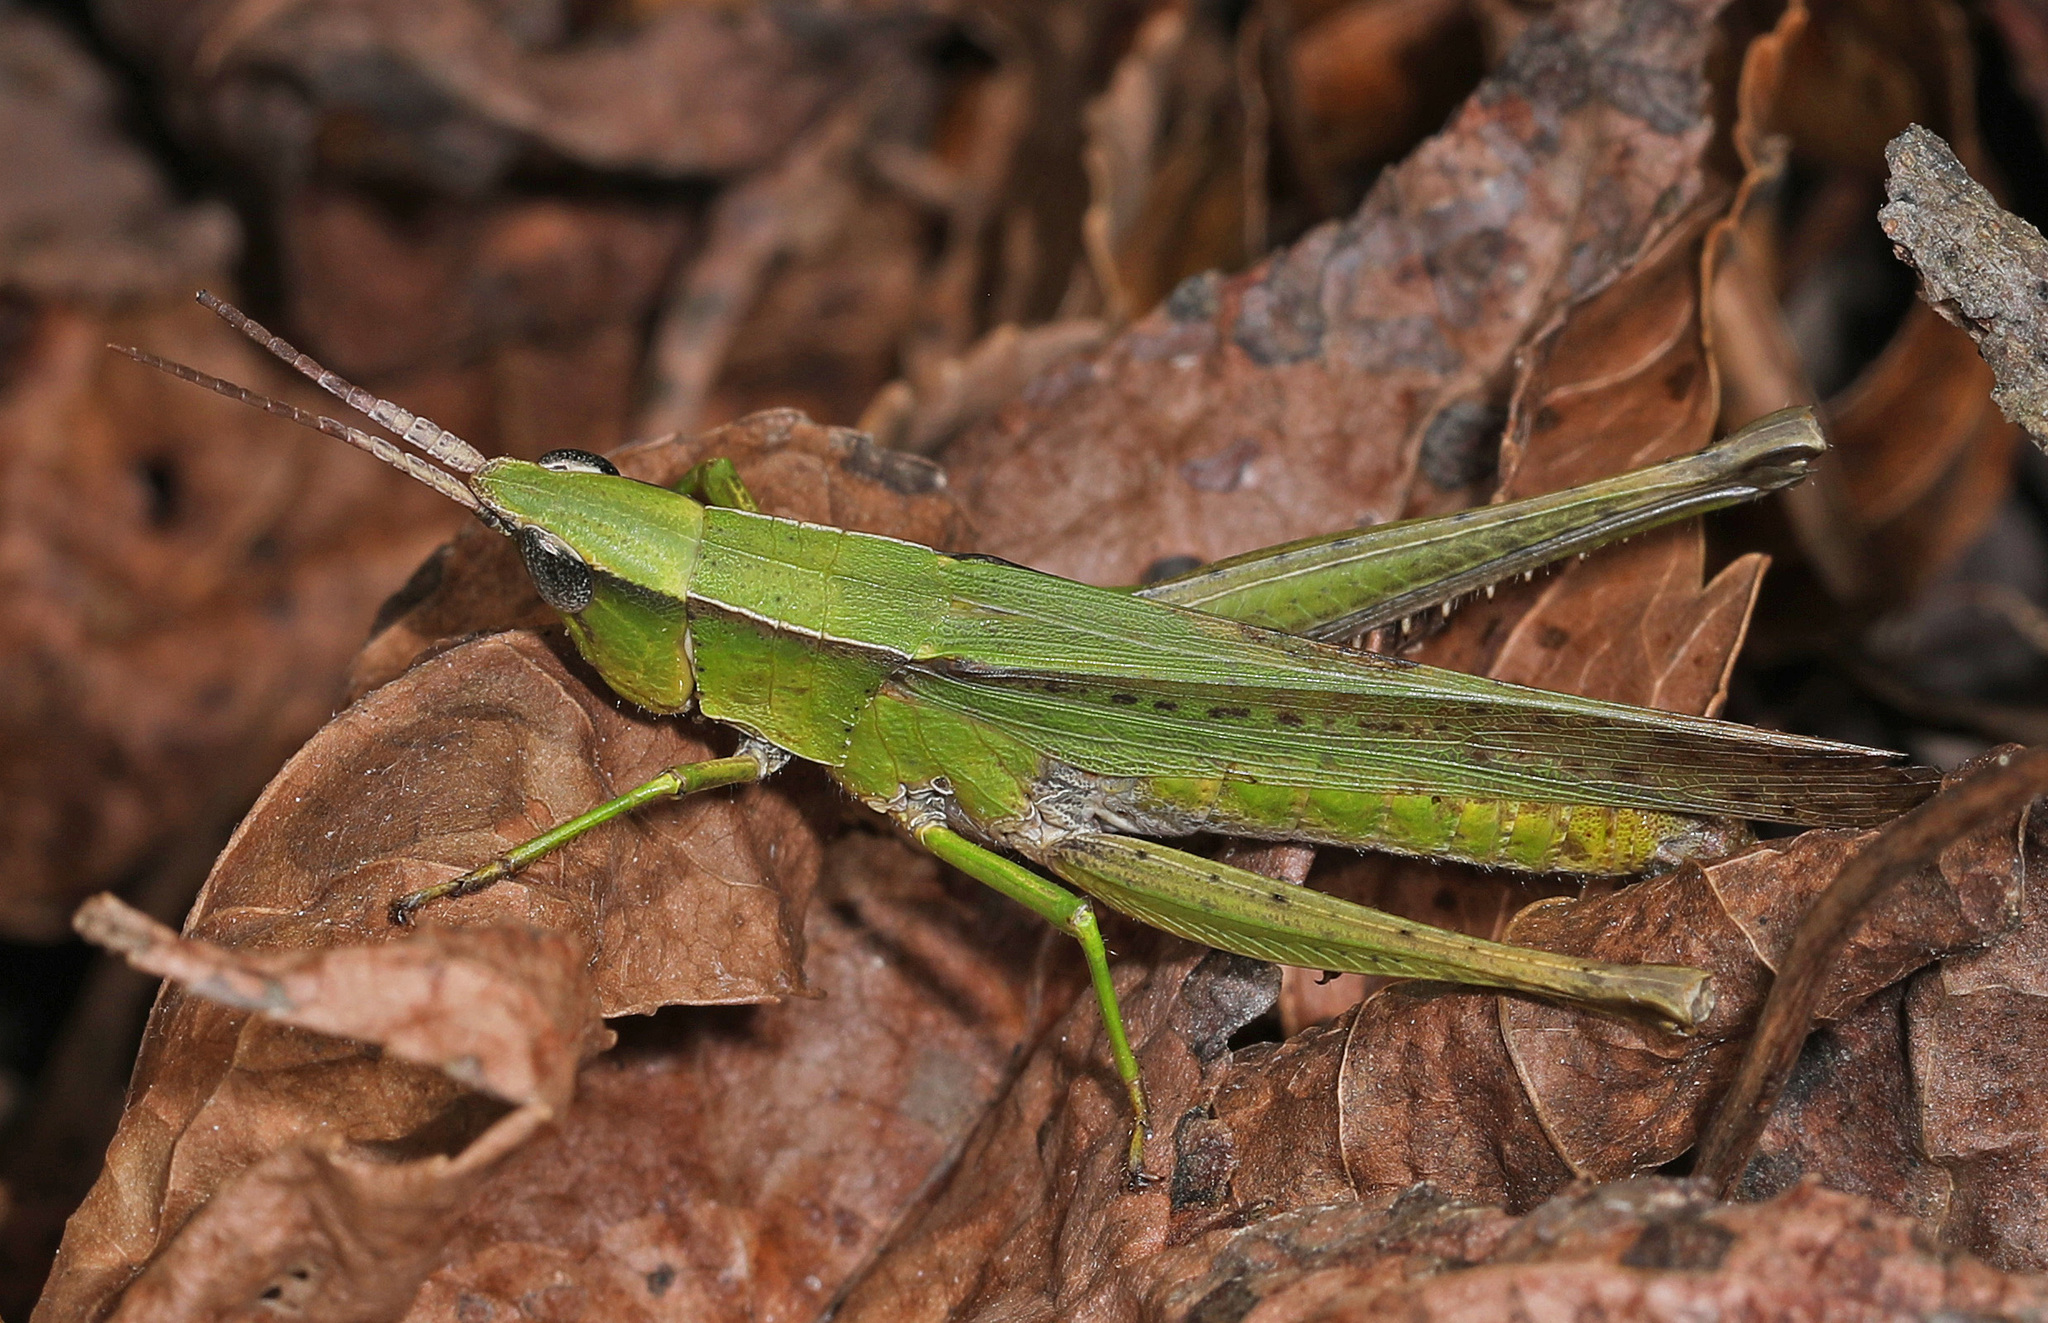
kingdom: Animalia
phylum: Arthropoda
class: Insecta
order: Orthoptera
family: Acrididae
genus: Metaleptea
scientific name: Metaleptea brevicornis
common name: Clipped-wing grasshopper
